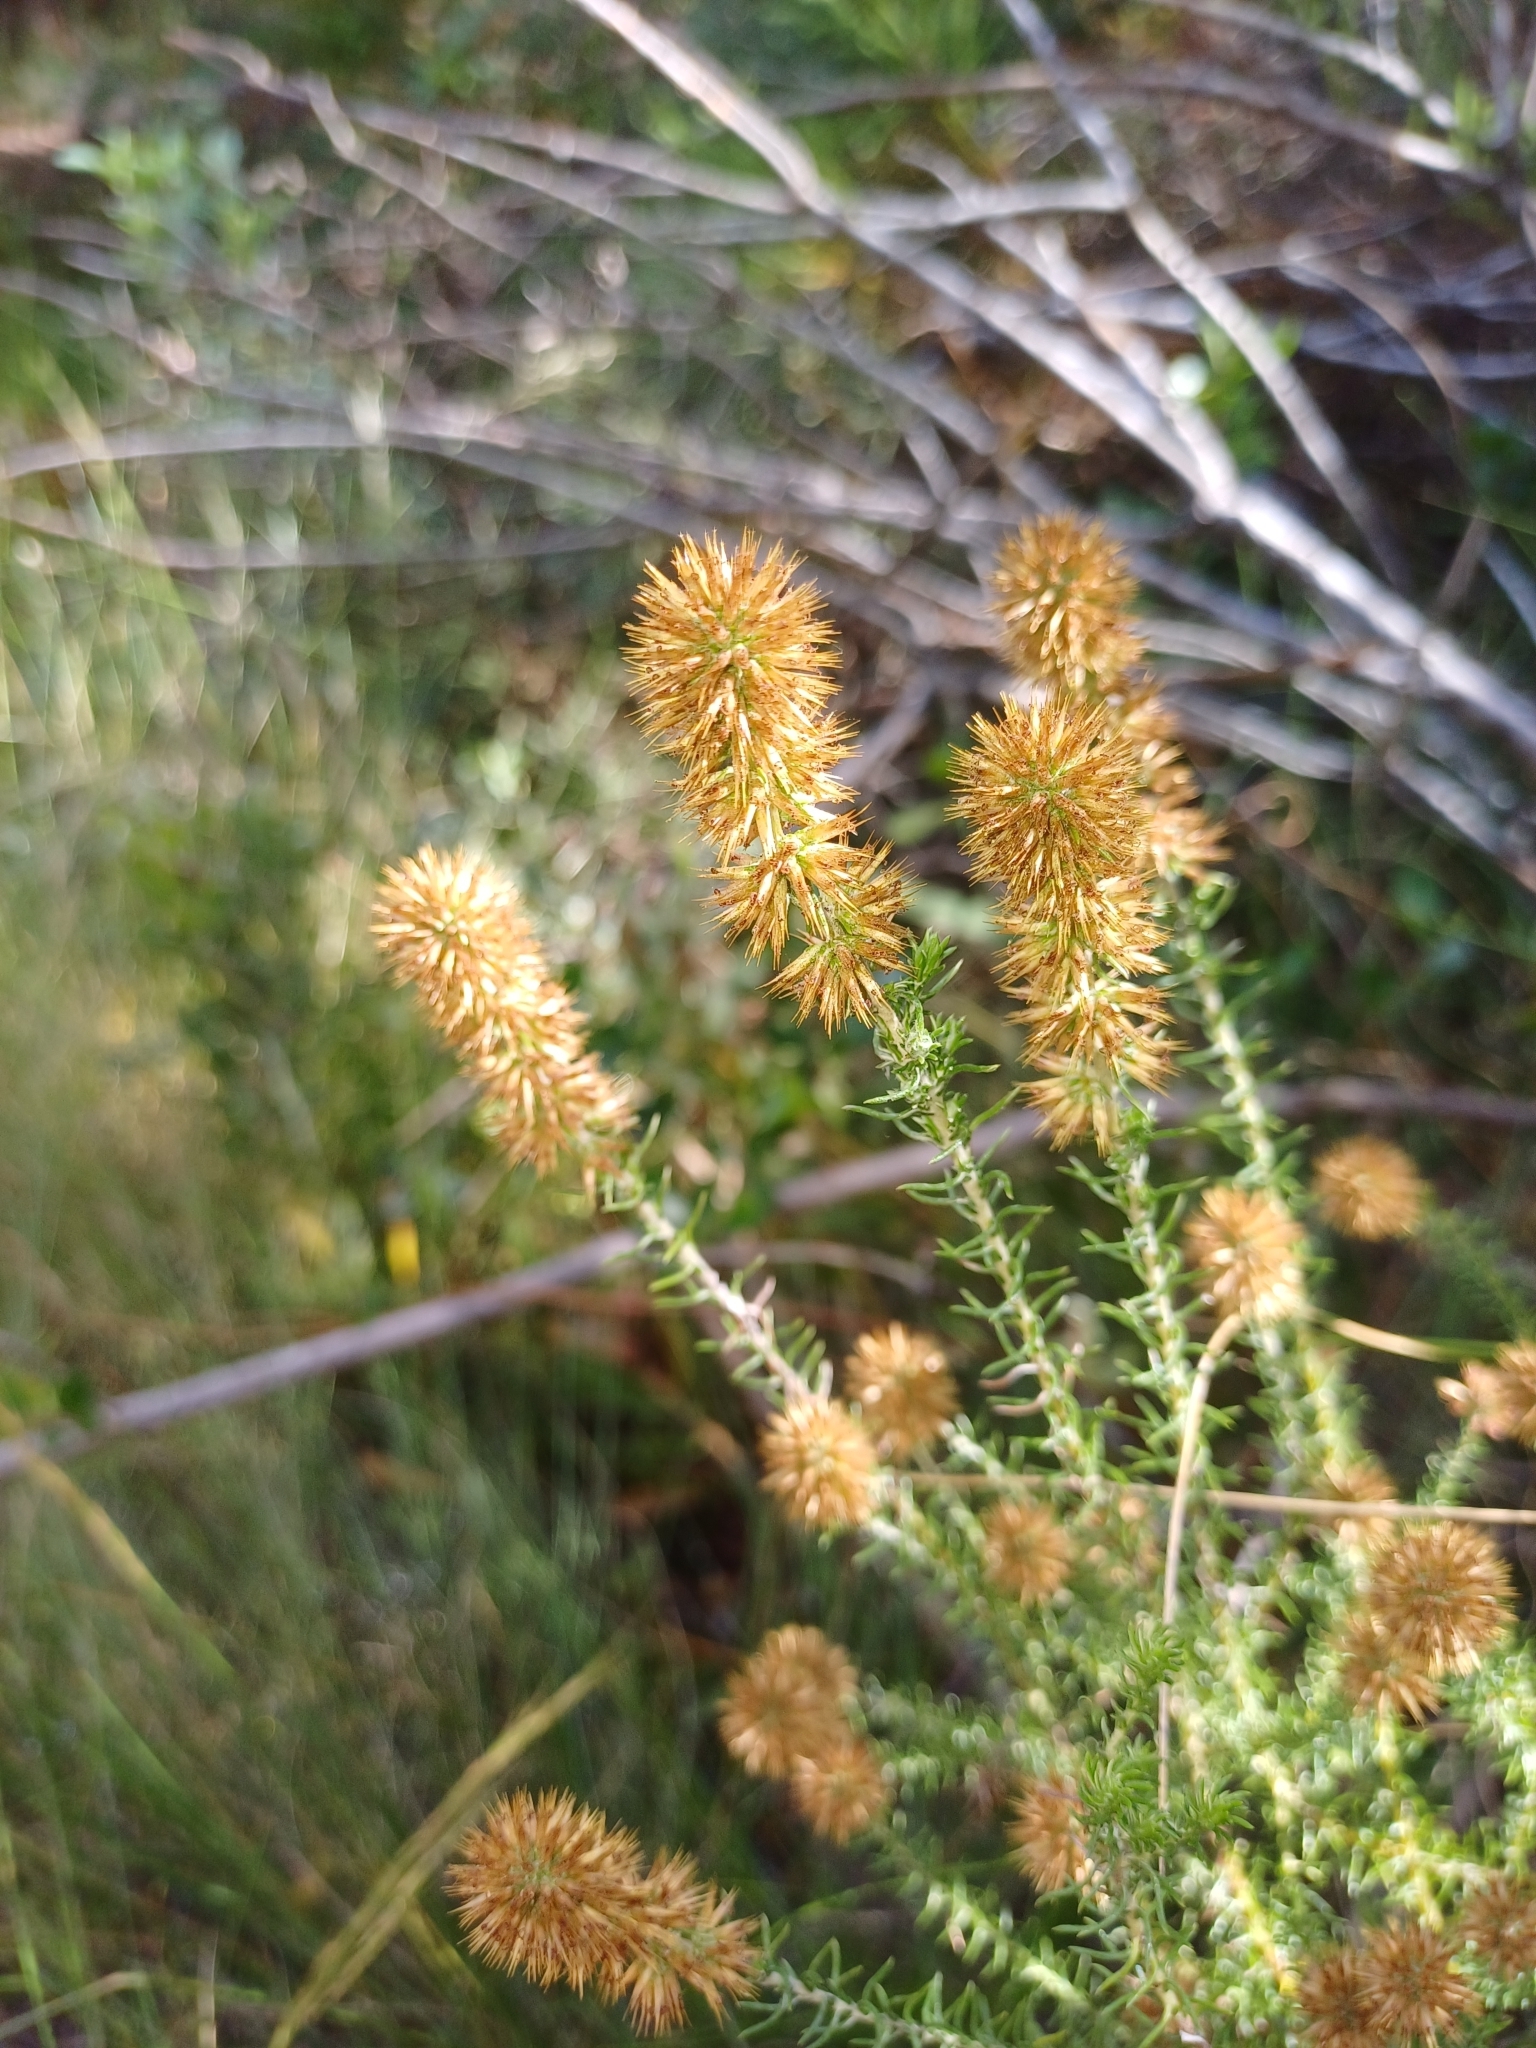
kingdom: Plantae
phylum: Tracheophyta
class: Magnoliopsida
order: Asterales
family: Asteraceae
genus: Seriphium
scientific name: Seriphium cinereum
